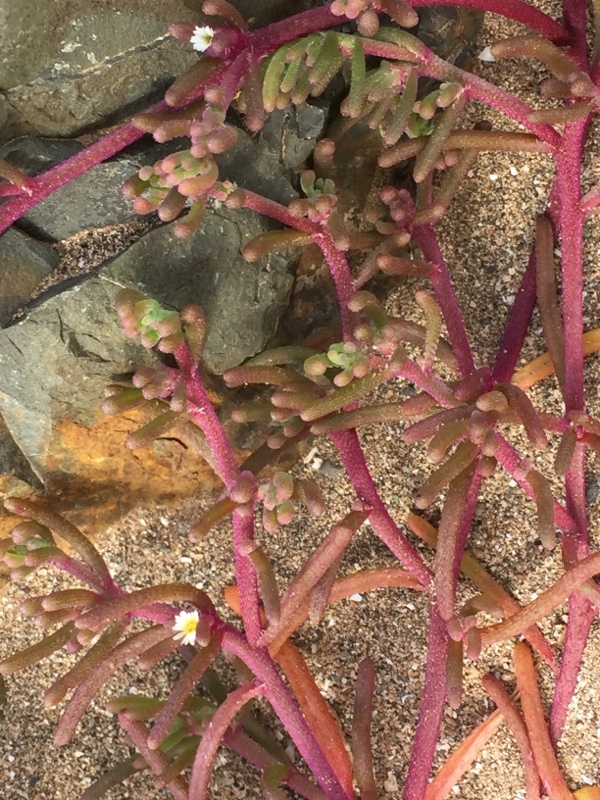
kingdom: Plantae
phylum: Tracheophyta
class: Magnoliopsida
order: Caryophyllales
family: Aizoaceae
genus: Mesembryanthemum
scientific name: Mesembryanthemum nodiflorum
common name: Slenderleaf iceplant
